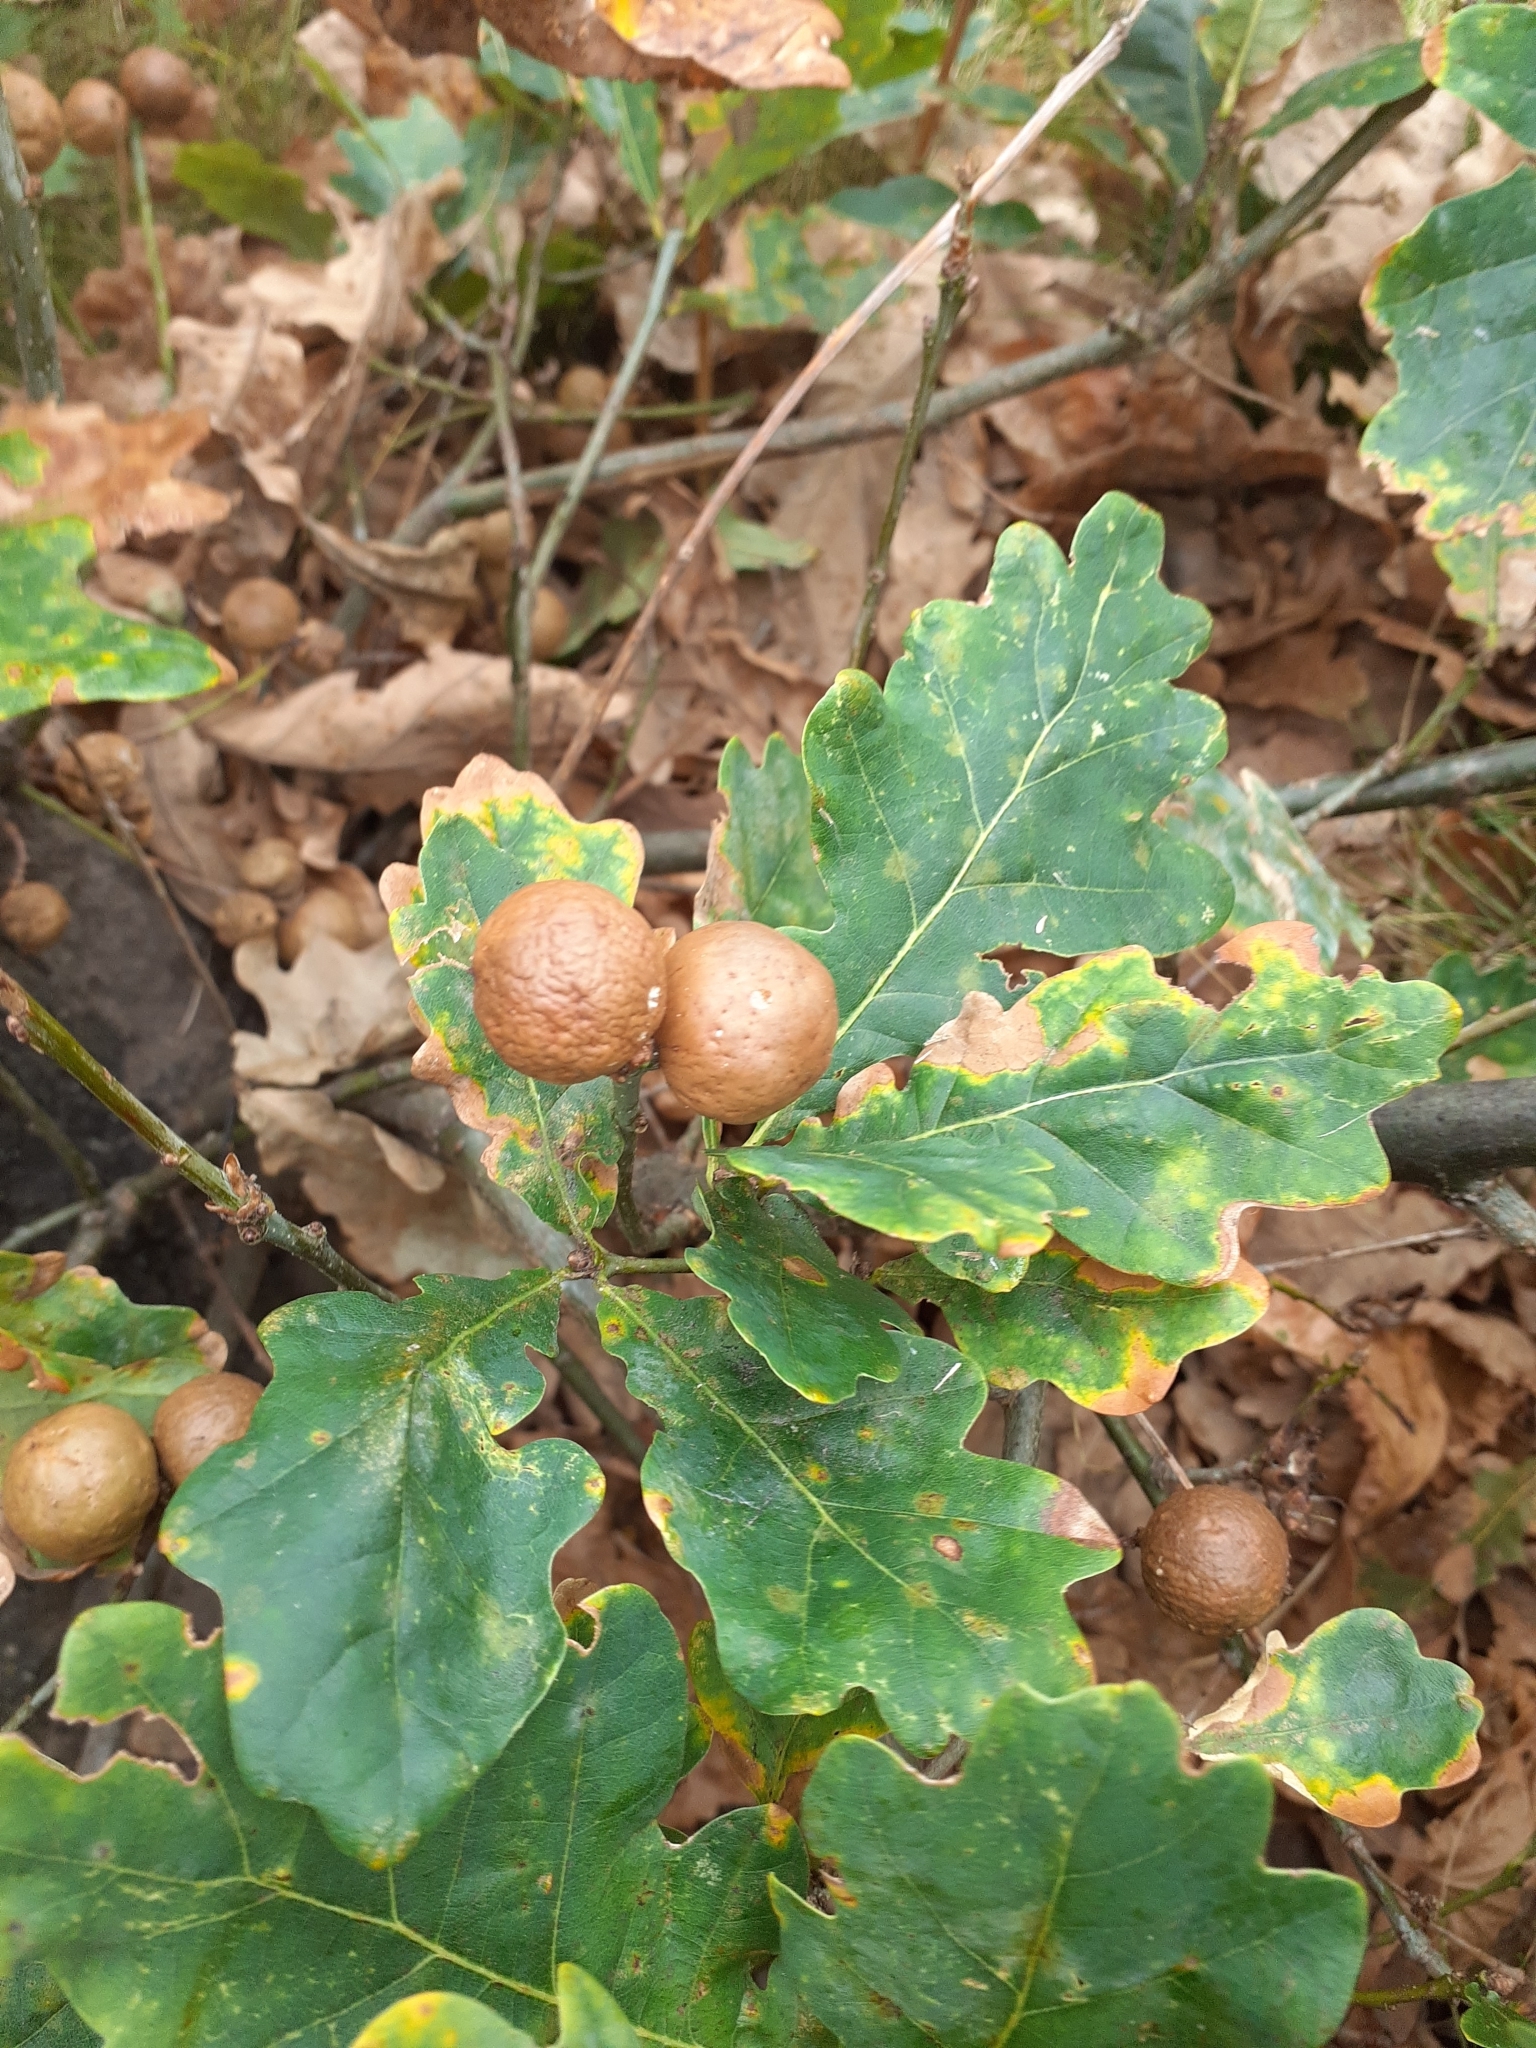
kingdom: Animalia
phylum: Arthropoda
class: Insecta
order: Hymenoptera
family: Cynipidae
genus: Andricus
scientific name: Andricus kollari
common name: Marble gall
